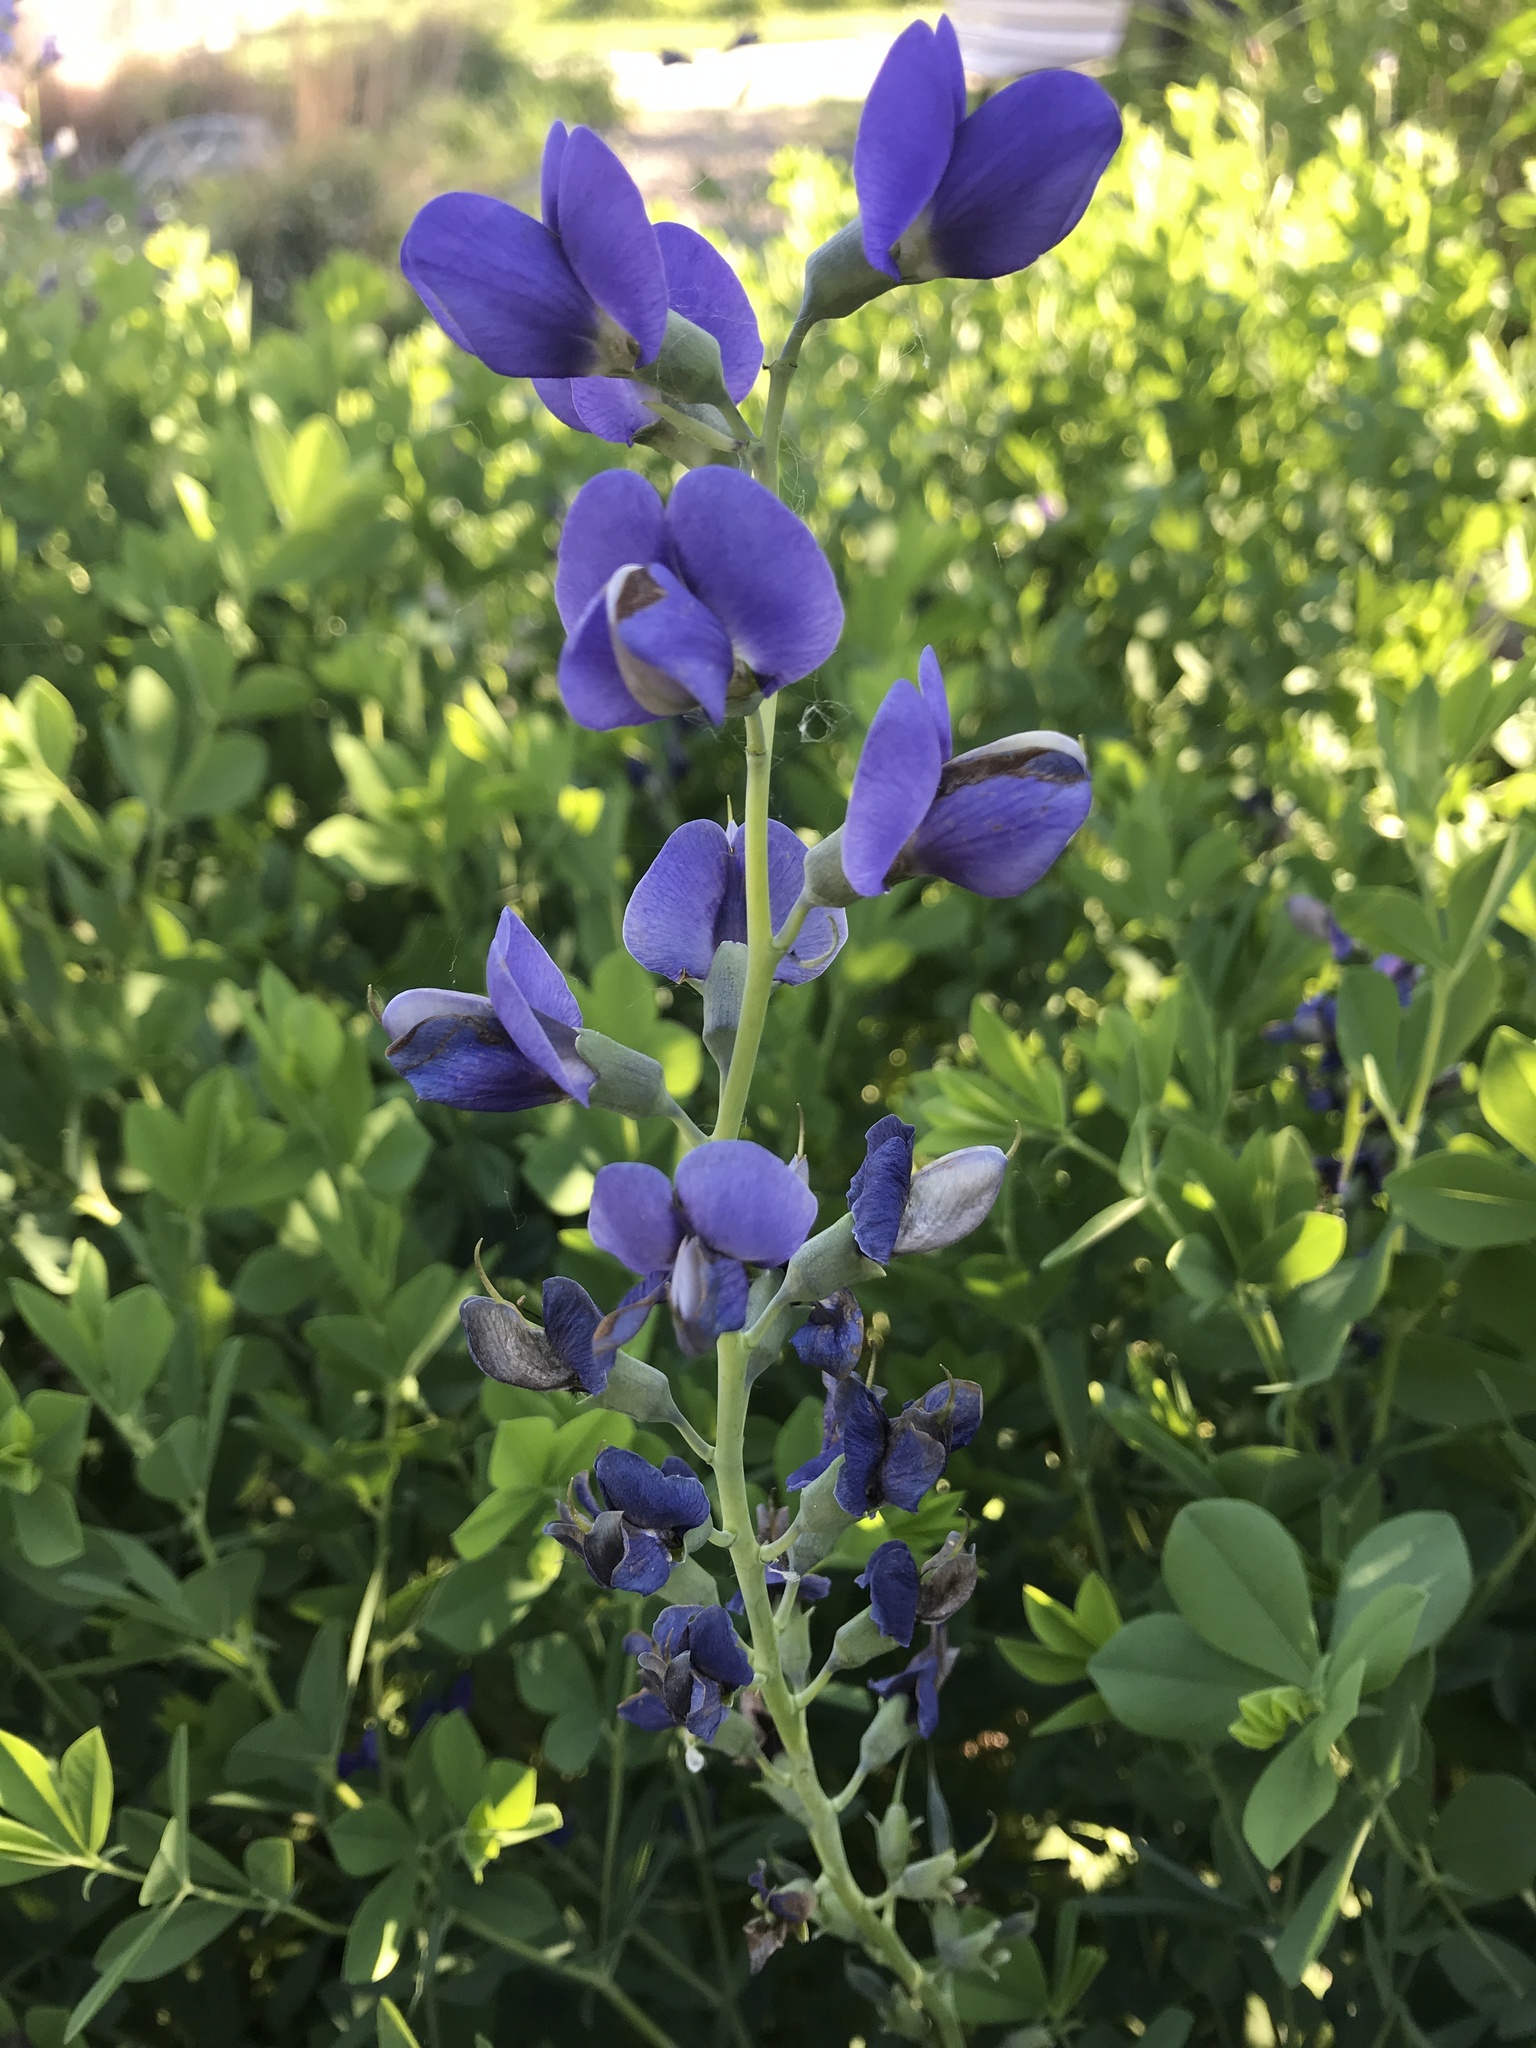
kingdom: Plantae
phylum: Tracheophyta
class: Magnoliopsida
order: Fabales
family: Fabaceae
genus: Baptisia
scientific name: Baptisia australis
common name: Blue false indigo
